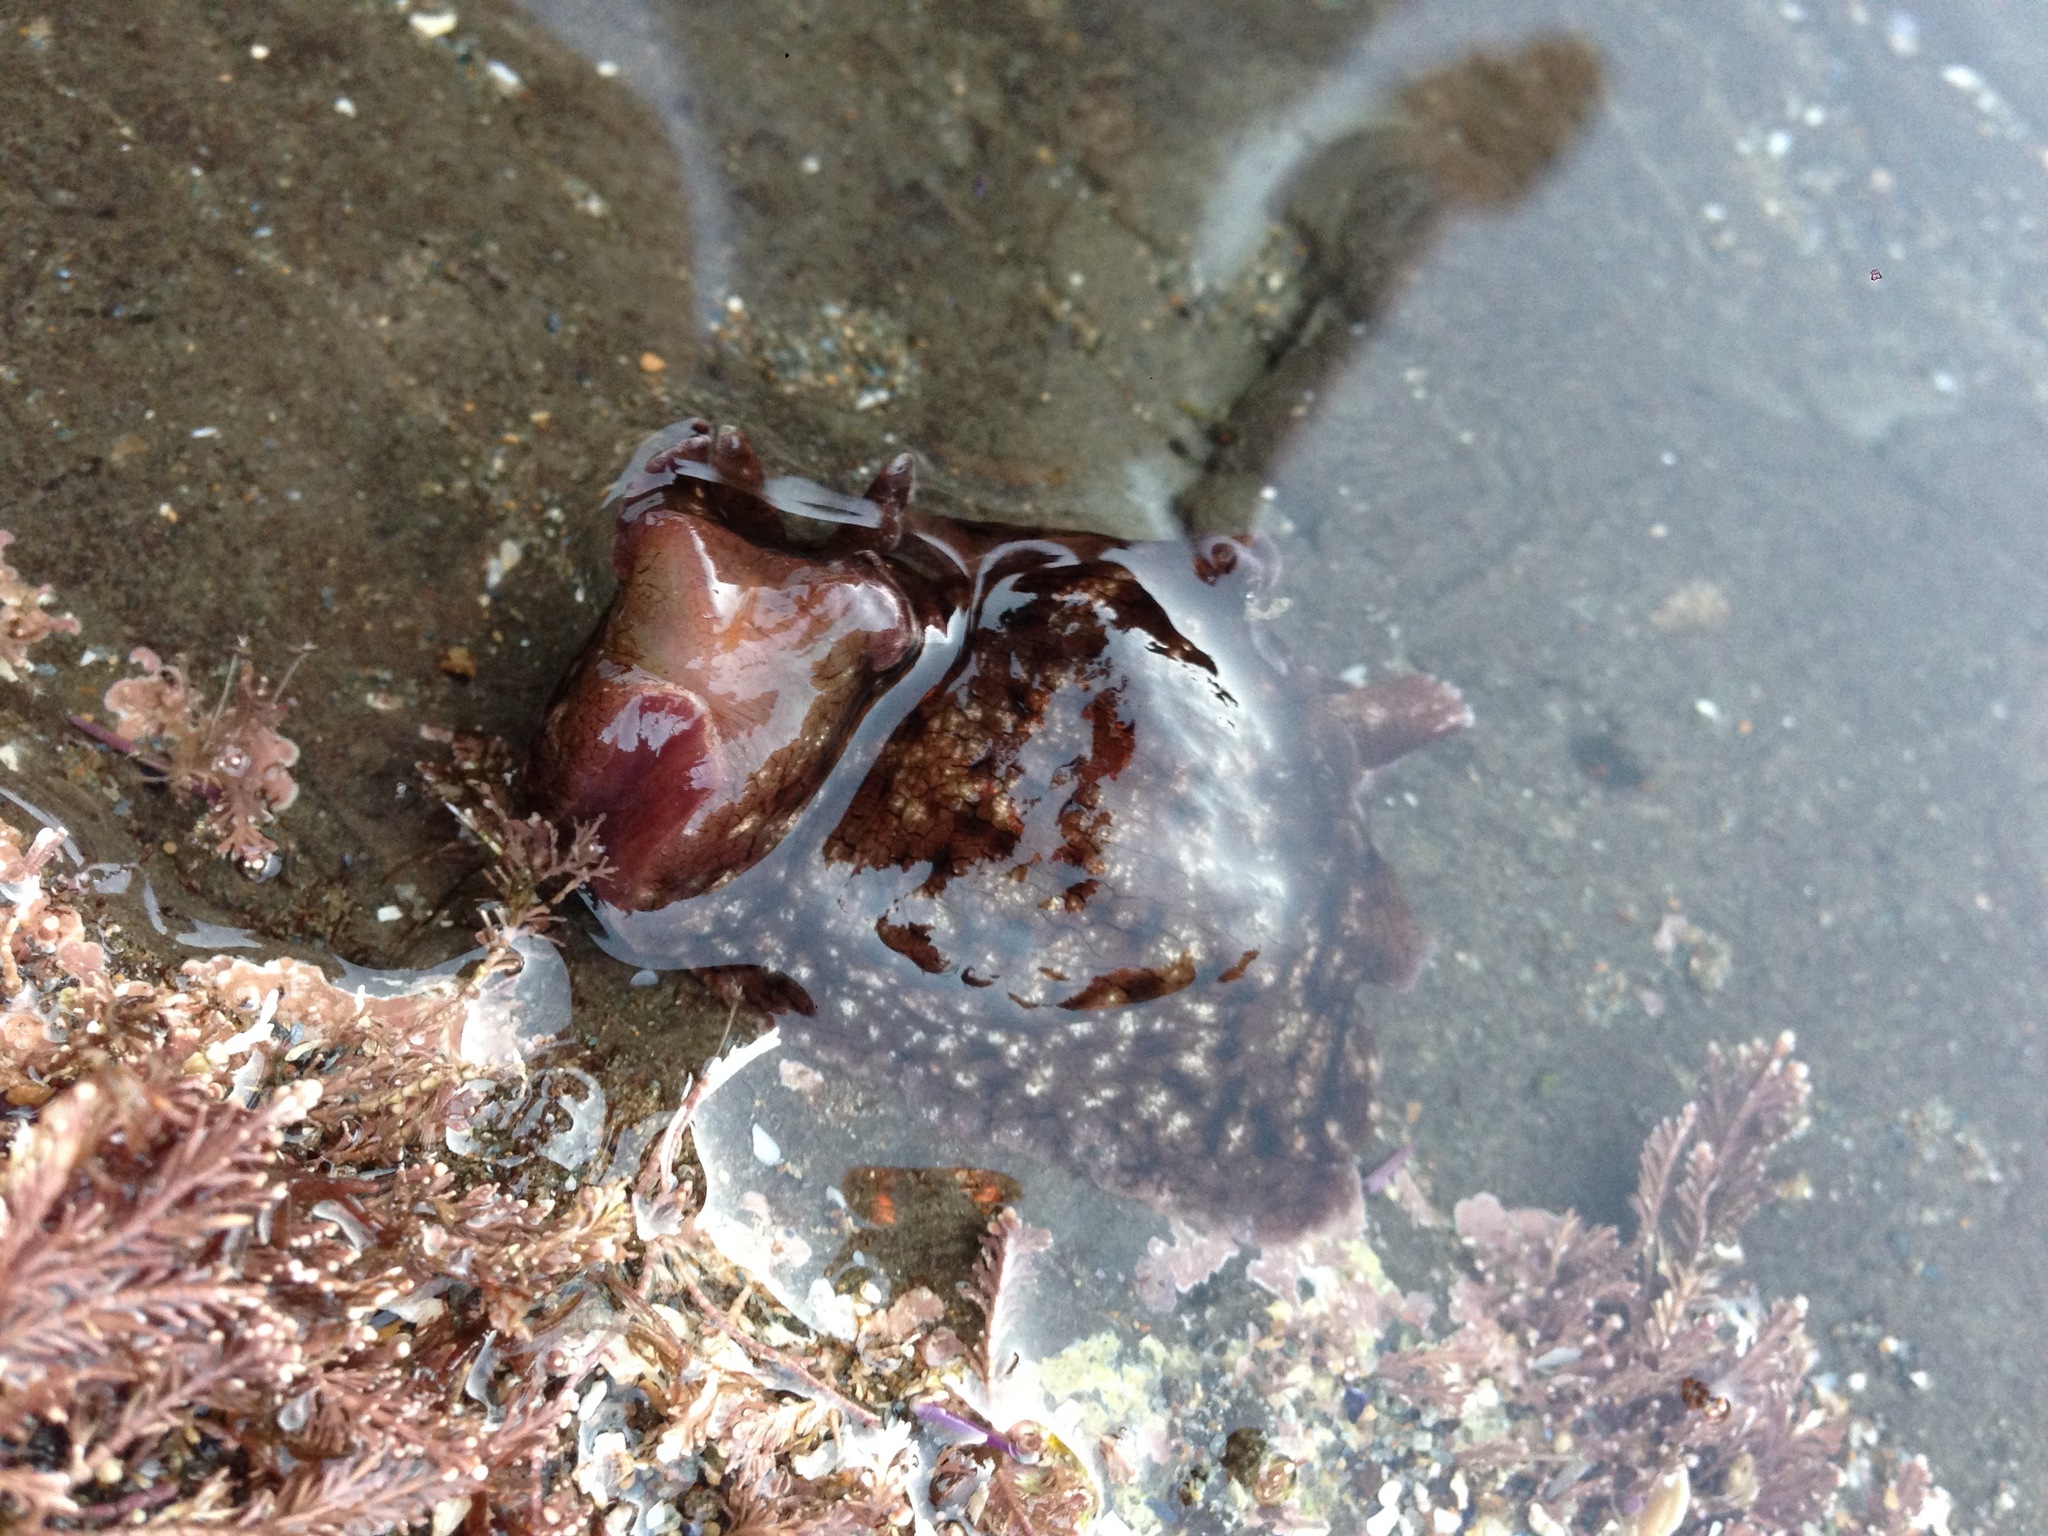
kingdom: Animalia
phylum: Mollusca
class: Gastropoda
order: Aplysiida
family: Aplysiidae
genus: Aplysia
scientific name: Aplysia californica
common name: California seahare
